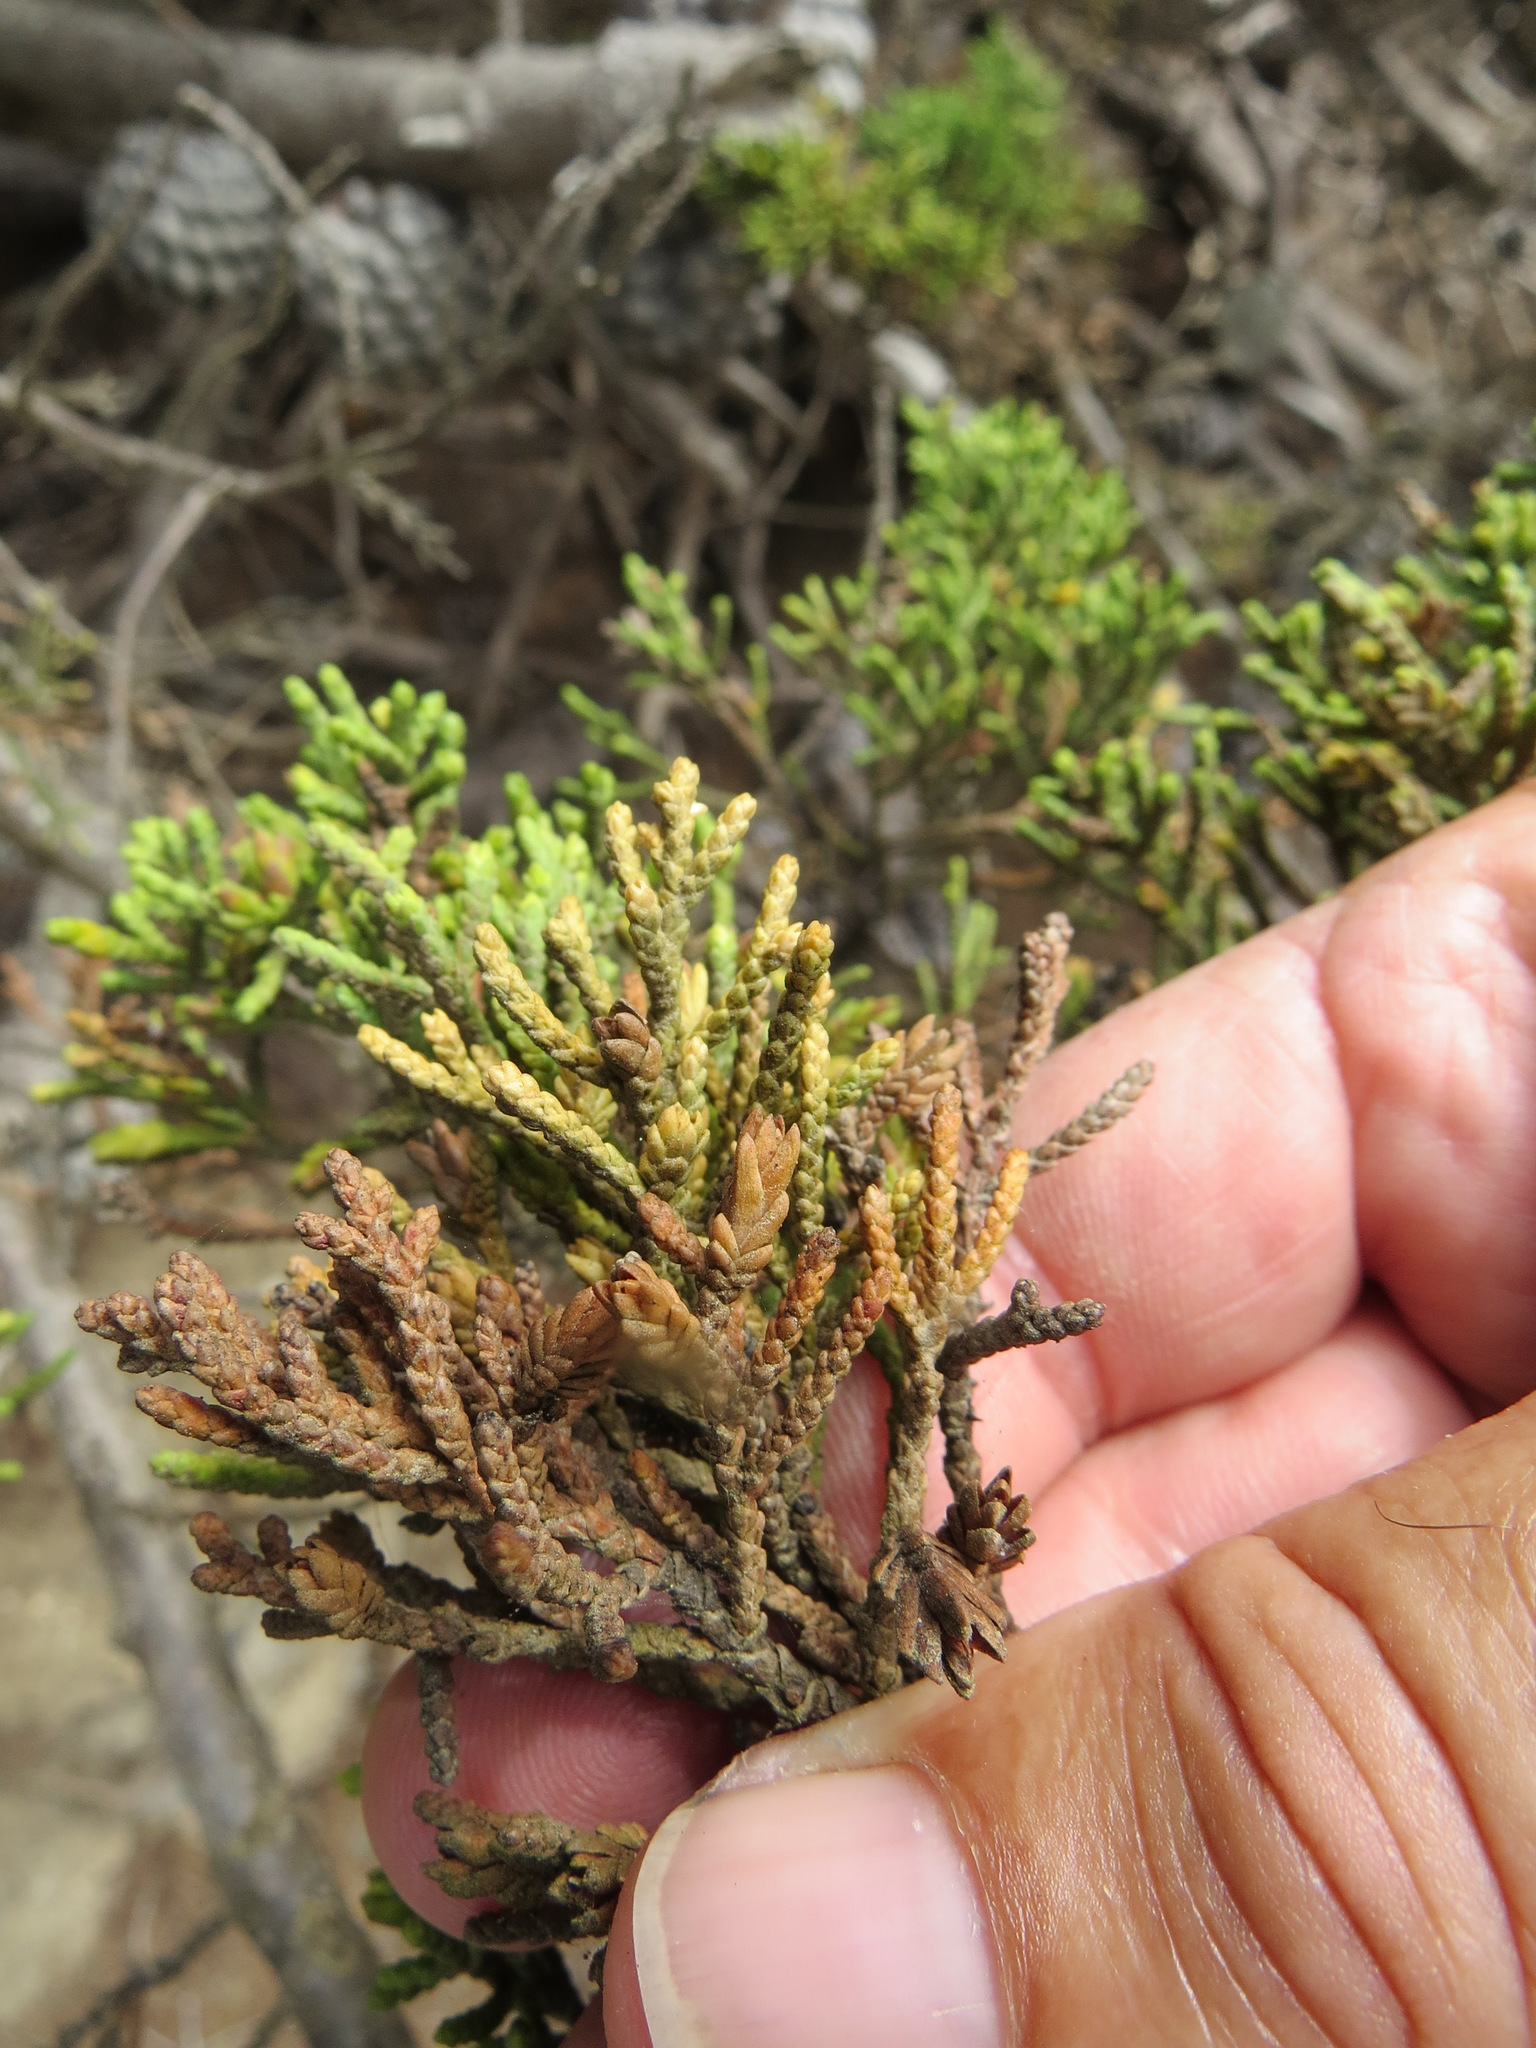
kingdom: Animalia
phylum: Arthropoda
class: Insecta
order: Diptera
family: Cecidomyiidae
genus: Oligotrophus
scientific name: Oligotrophus cupressi
